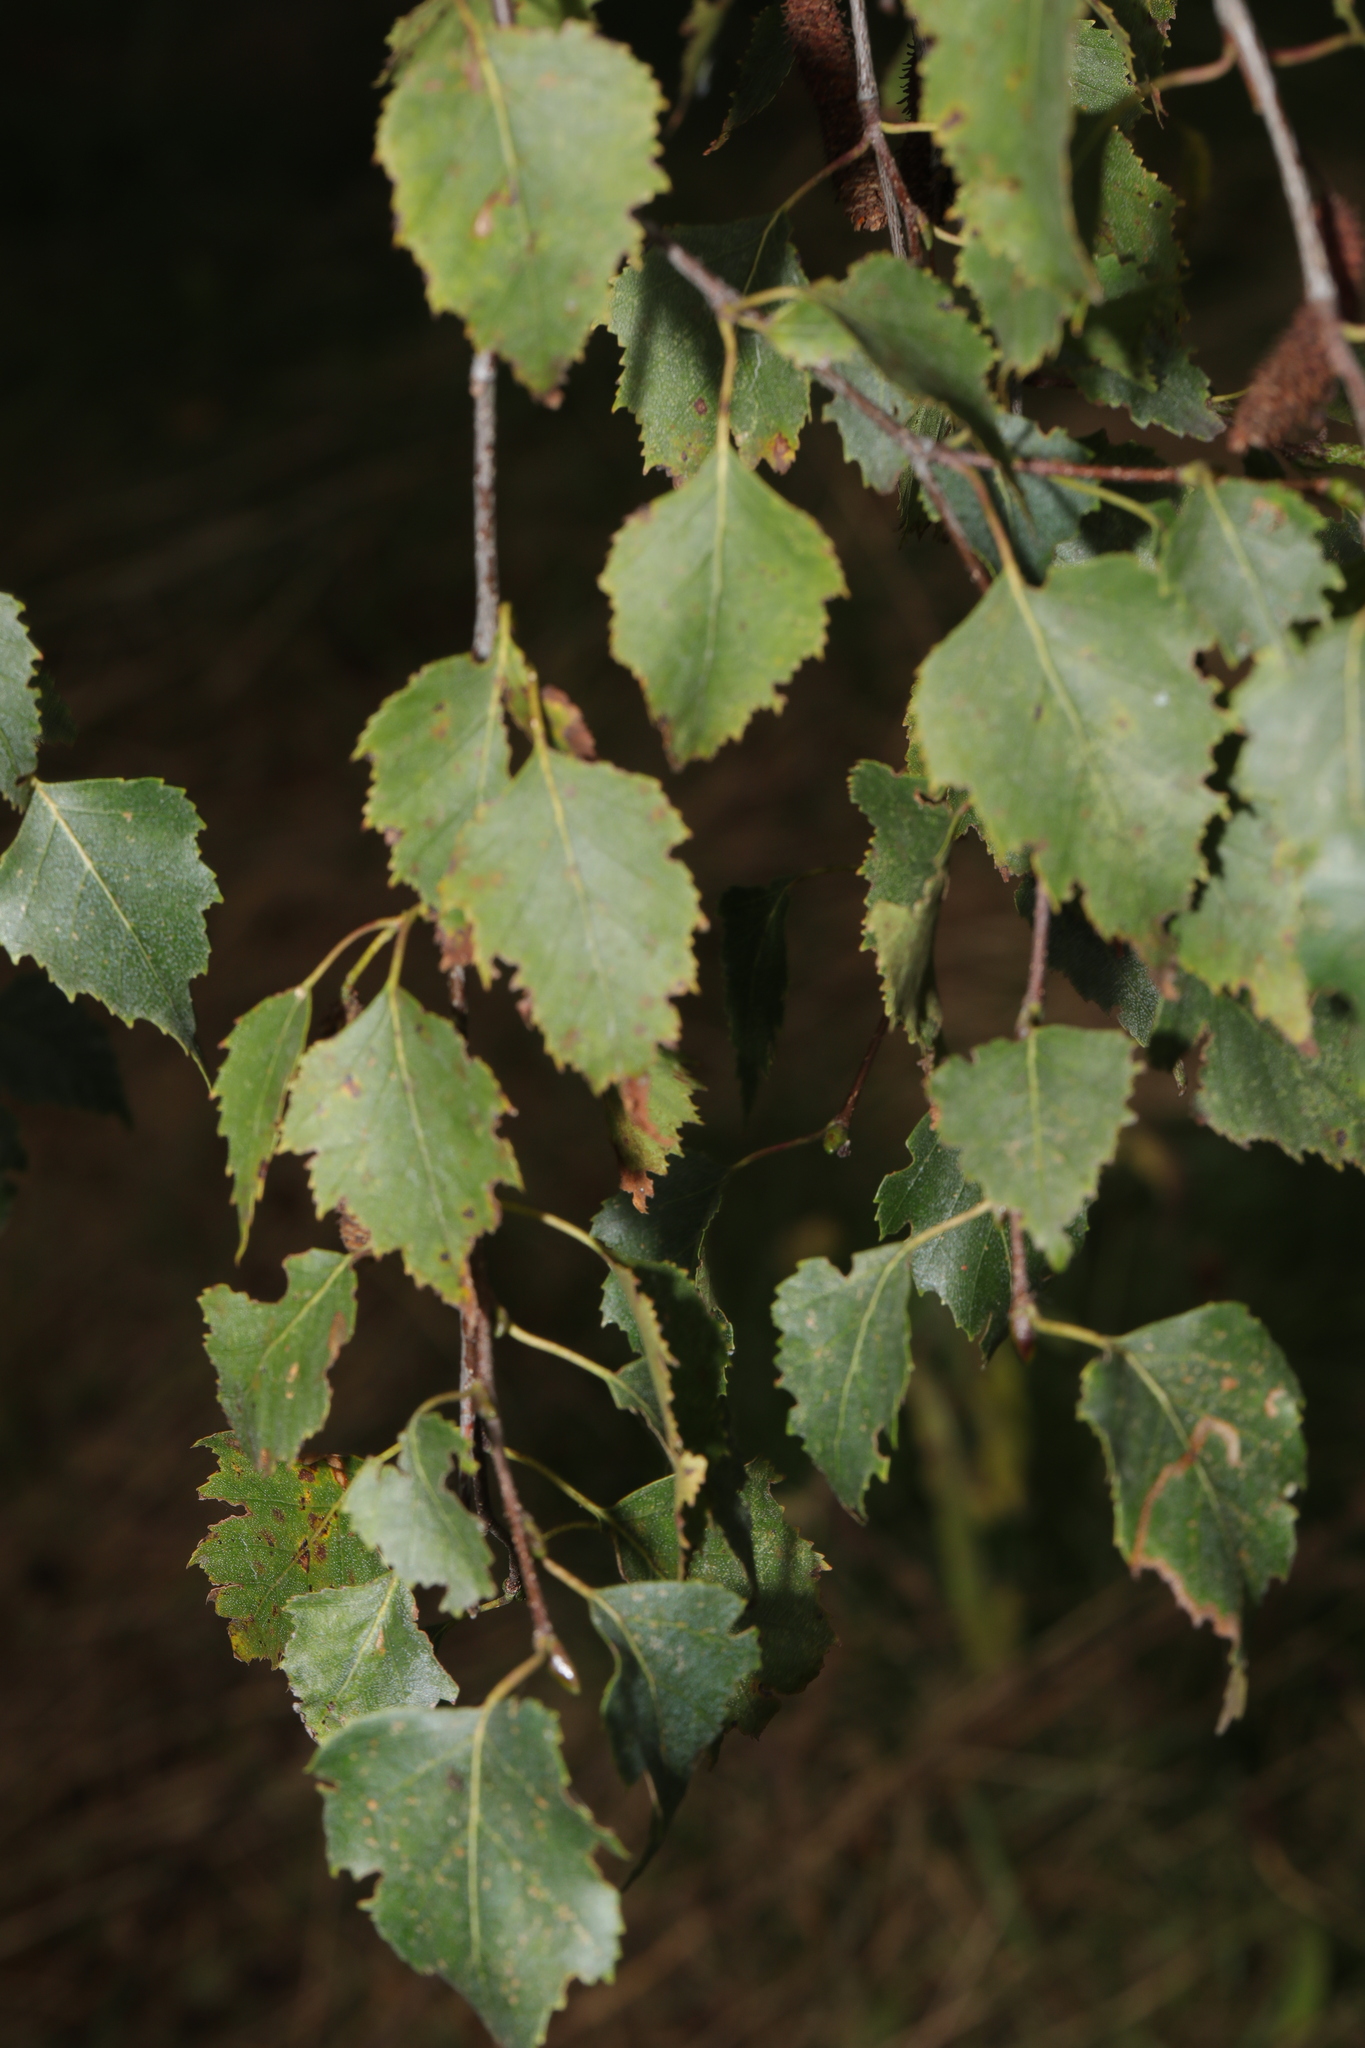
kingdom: Plantae
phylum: Tracheophyta
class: Magnoliopsida
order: Fagales
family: Betulaceae
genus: Betula
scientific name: Betula pendula
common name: Silver birch
